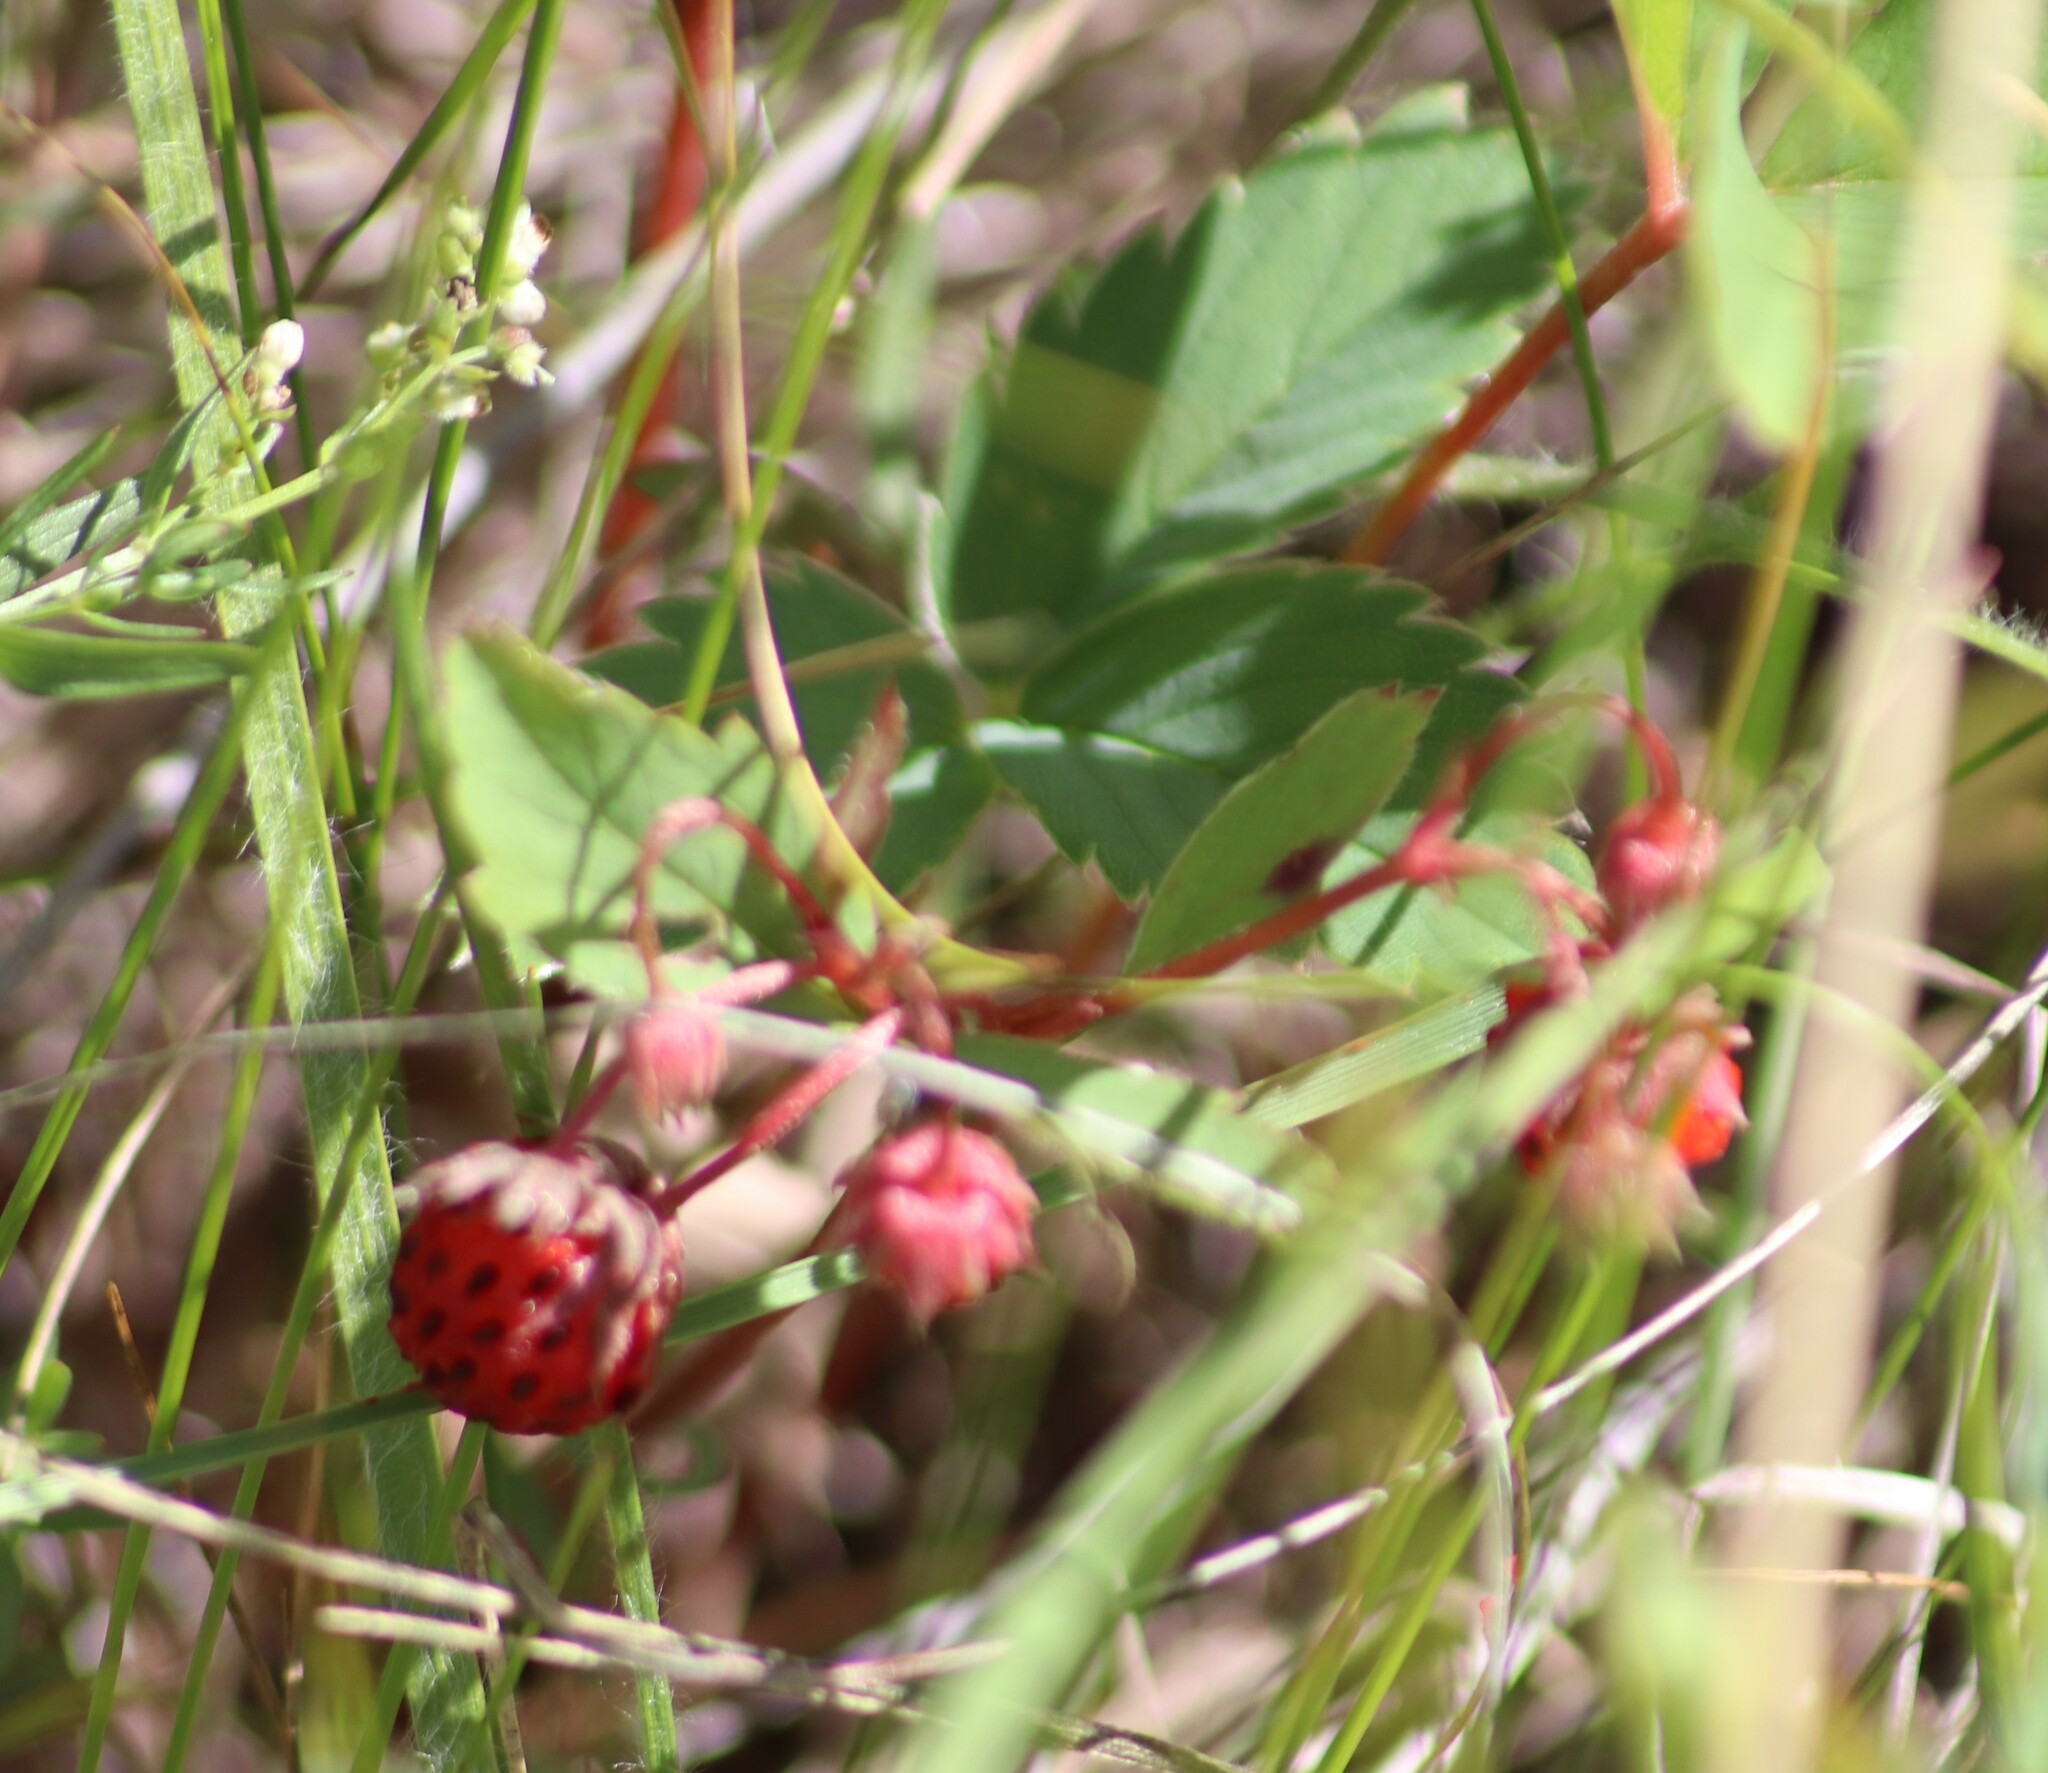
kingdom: Plantae
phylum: Tracheophyta
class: Magnoliopsida
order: Rosales
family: Rosaceae
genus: Fragaria
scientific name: Fragaria virginiana
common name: Thickleaved wild strawberry
